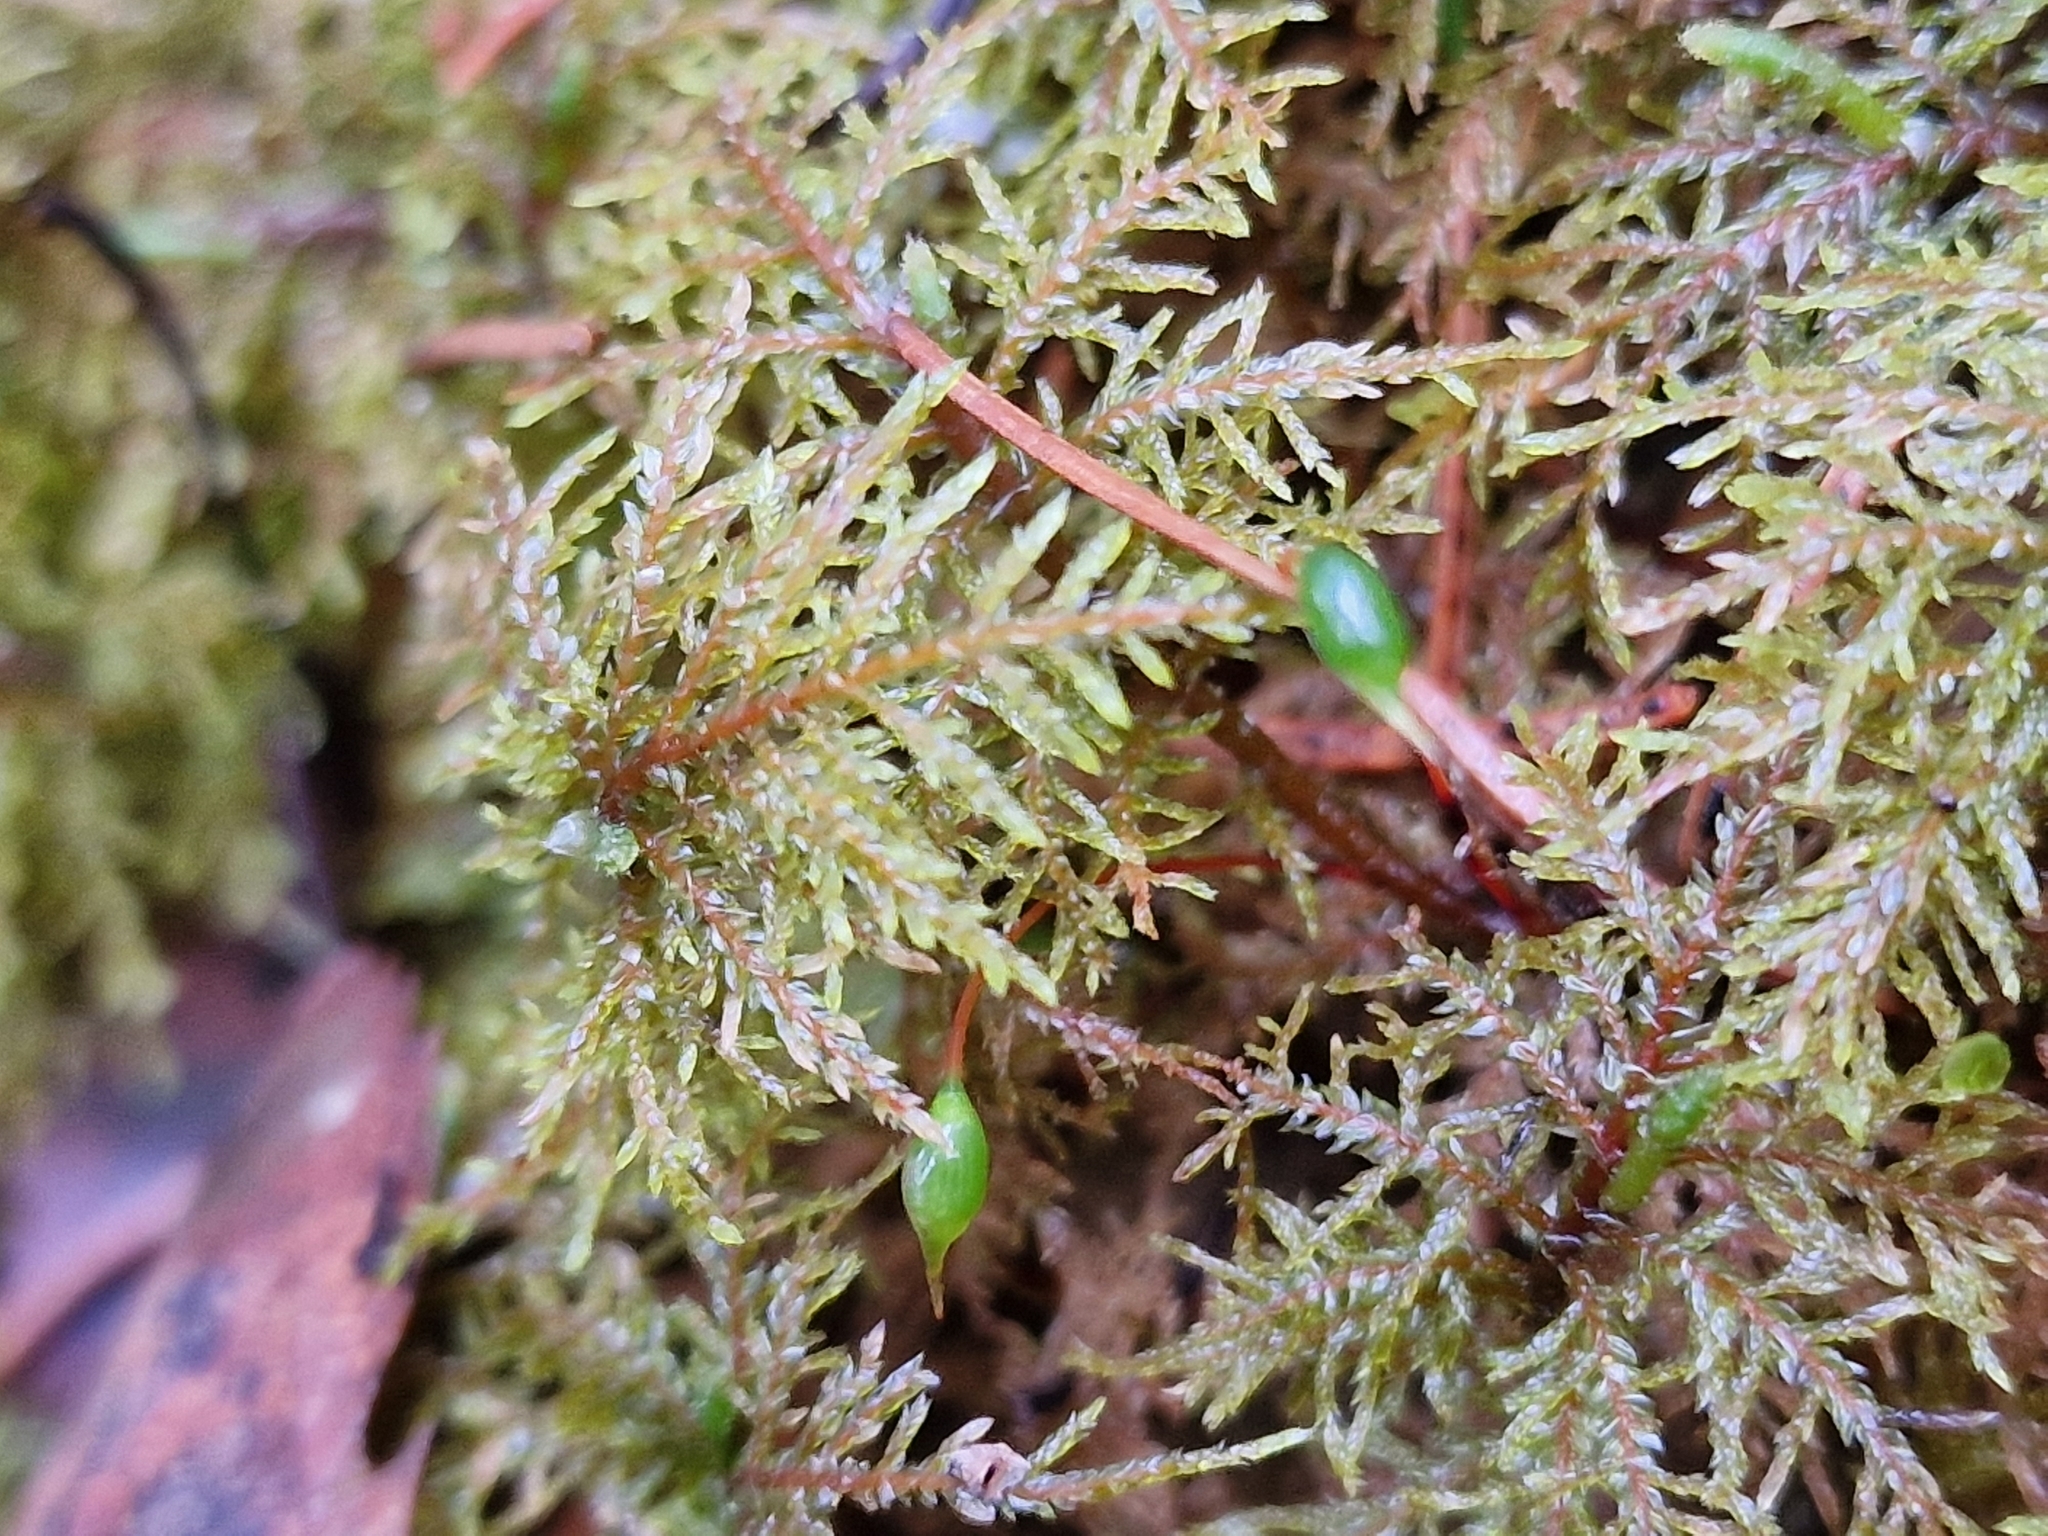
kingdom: Plantae
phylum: Bryophyta
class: Bryopsida
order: Hypnales
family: Hylocomiaceae
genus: Hylocomium
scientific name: Hylocomium splendens
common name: Stairstep moss
